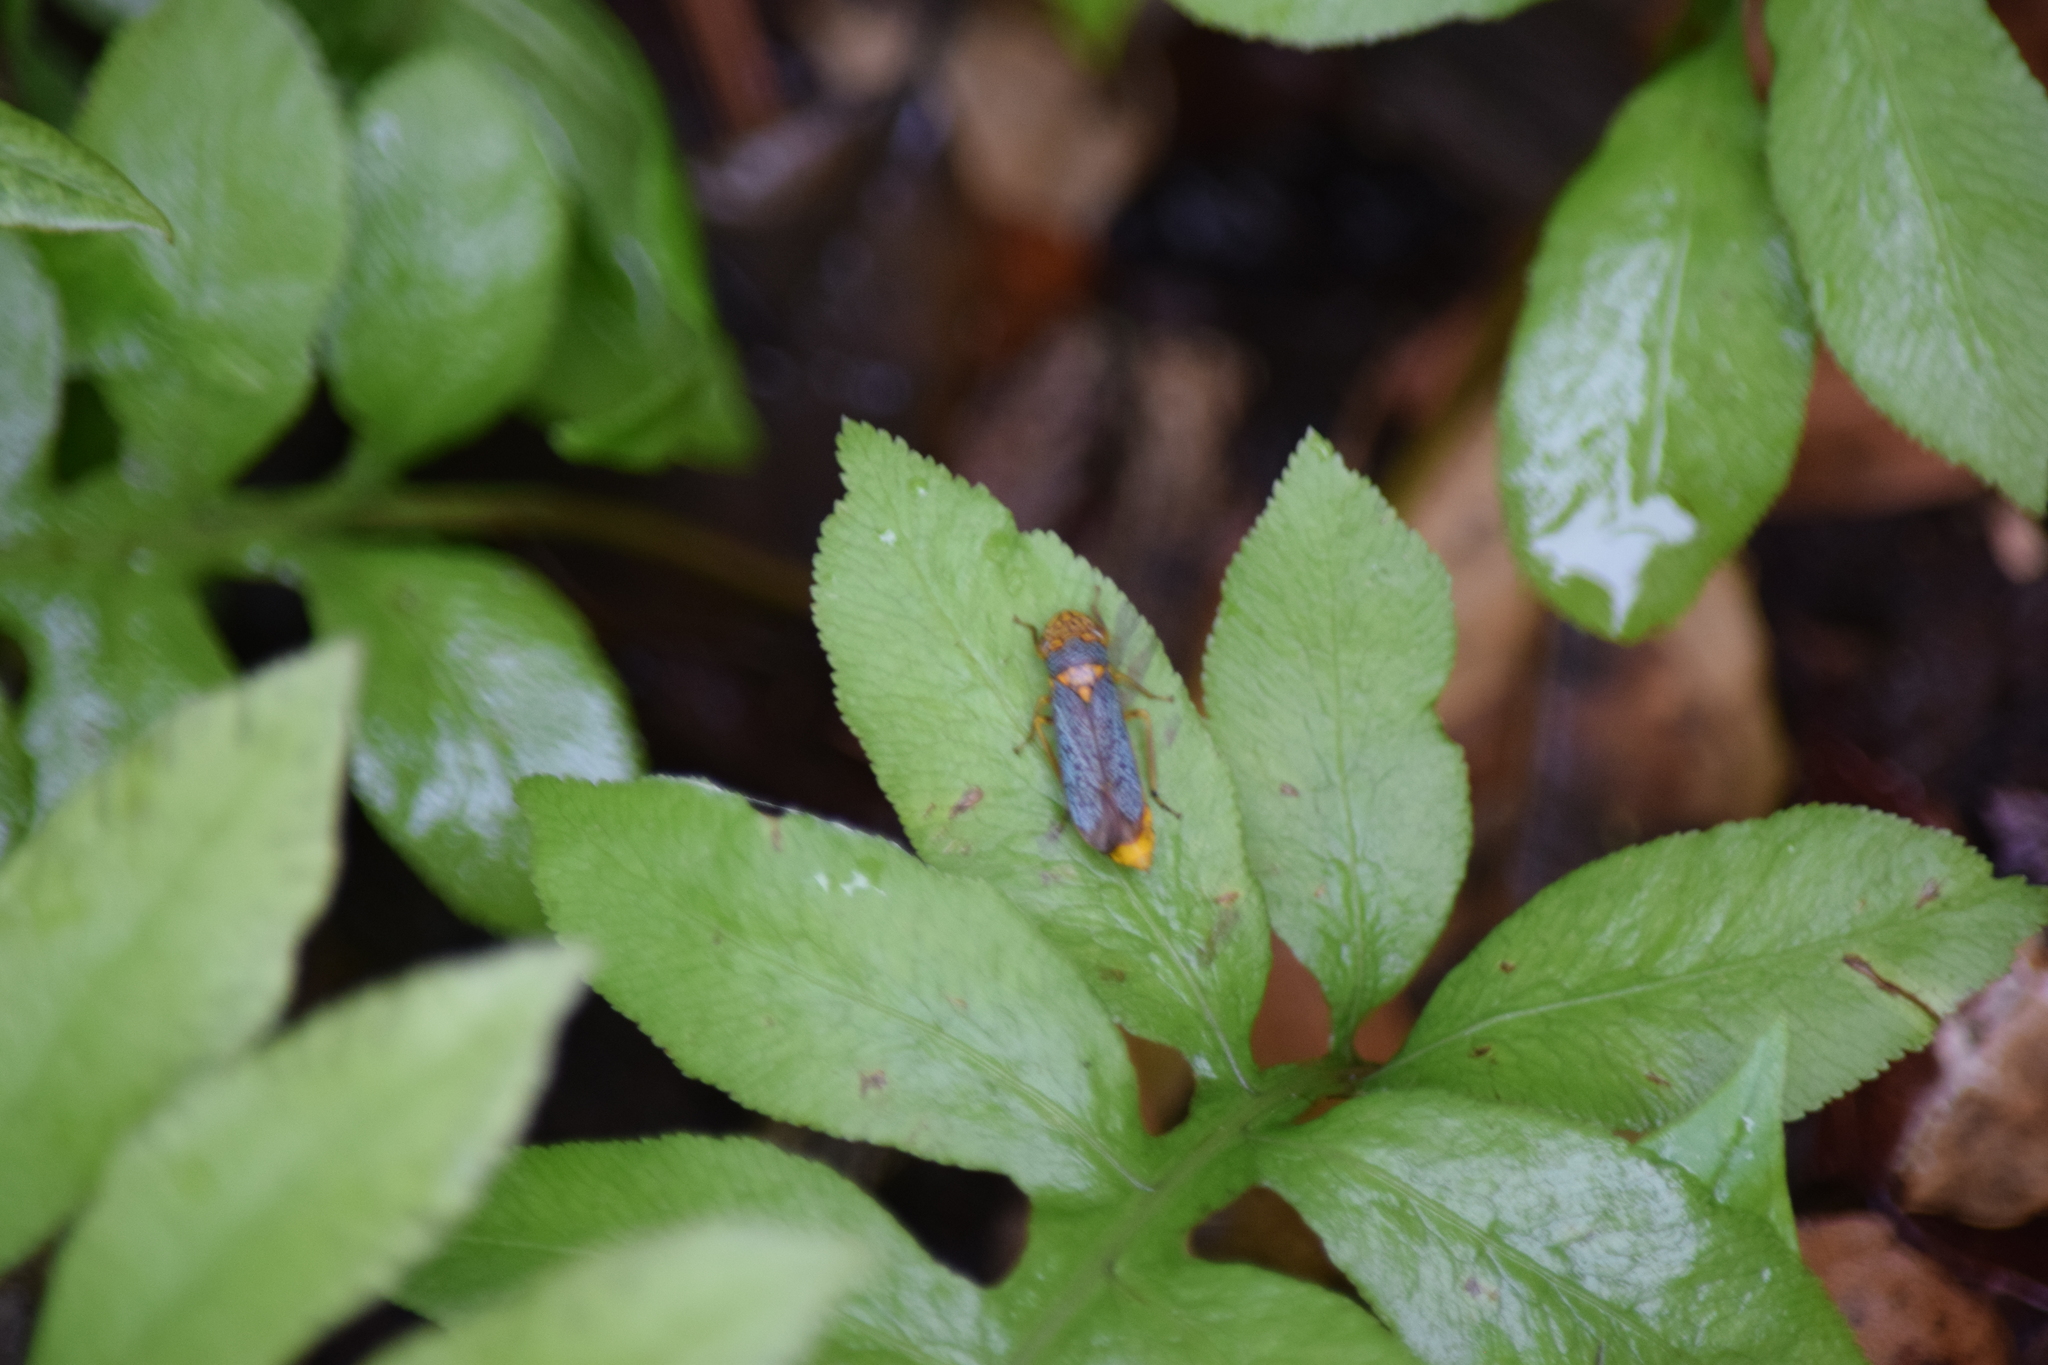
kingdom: Animalia
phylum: Arthropoda
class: Insecta
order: Hemiptera
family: Cicadellidae
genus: Oncometopia
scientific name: Oncometopia orbona
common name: Broad-headed sharpshooter
